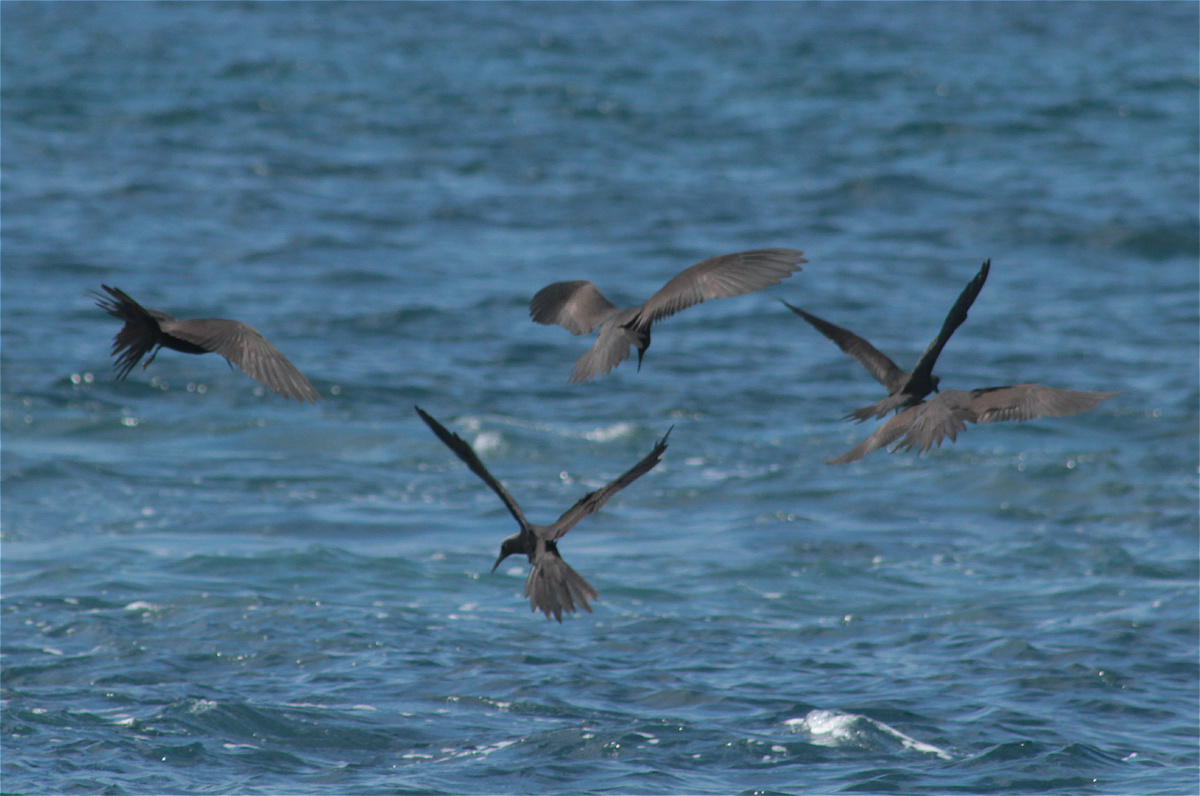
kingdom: Animalia
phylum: Chordata
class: Aves
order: Charadriiformes
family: Laridae
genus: Anous
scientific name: Anous stolidus
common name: Brown noddy
